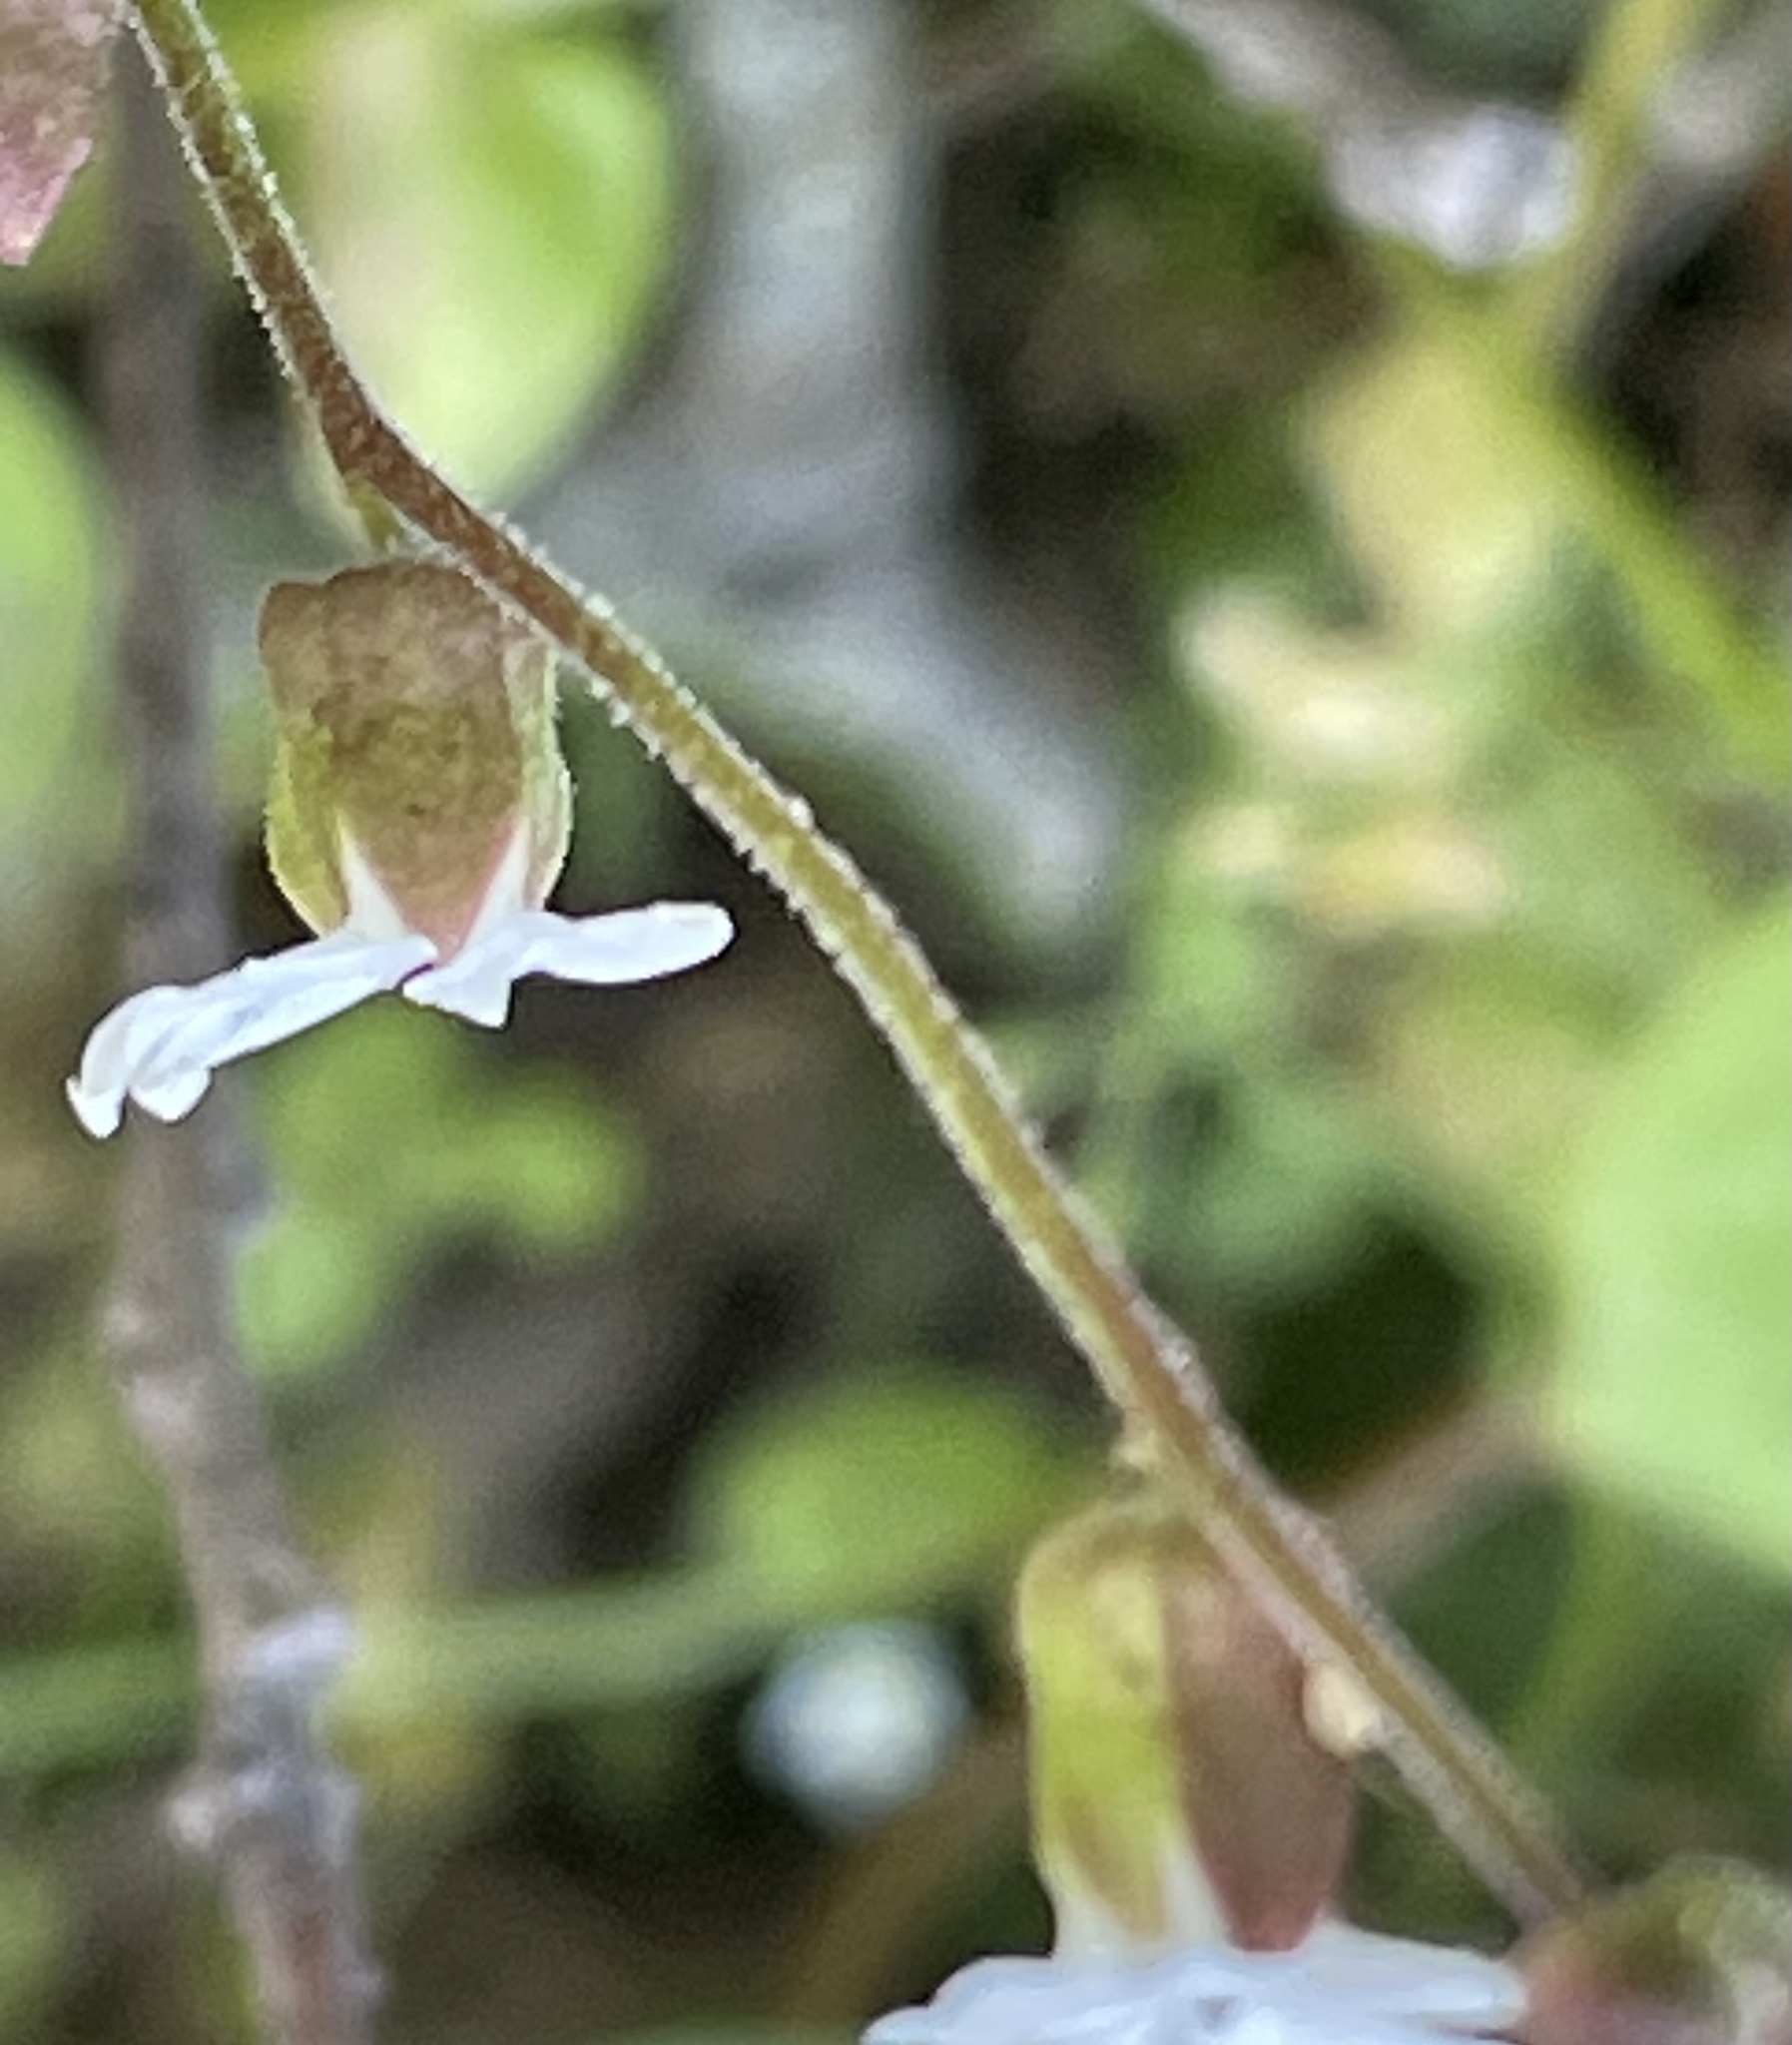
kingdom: Plantae
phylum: Tracheophyta
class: Magnoliopsida
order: Saxifragales
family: Saxifragaceae
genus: Lithophragma
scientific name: Lithophragma heterophyllum
